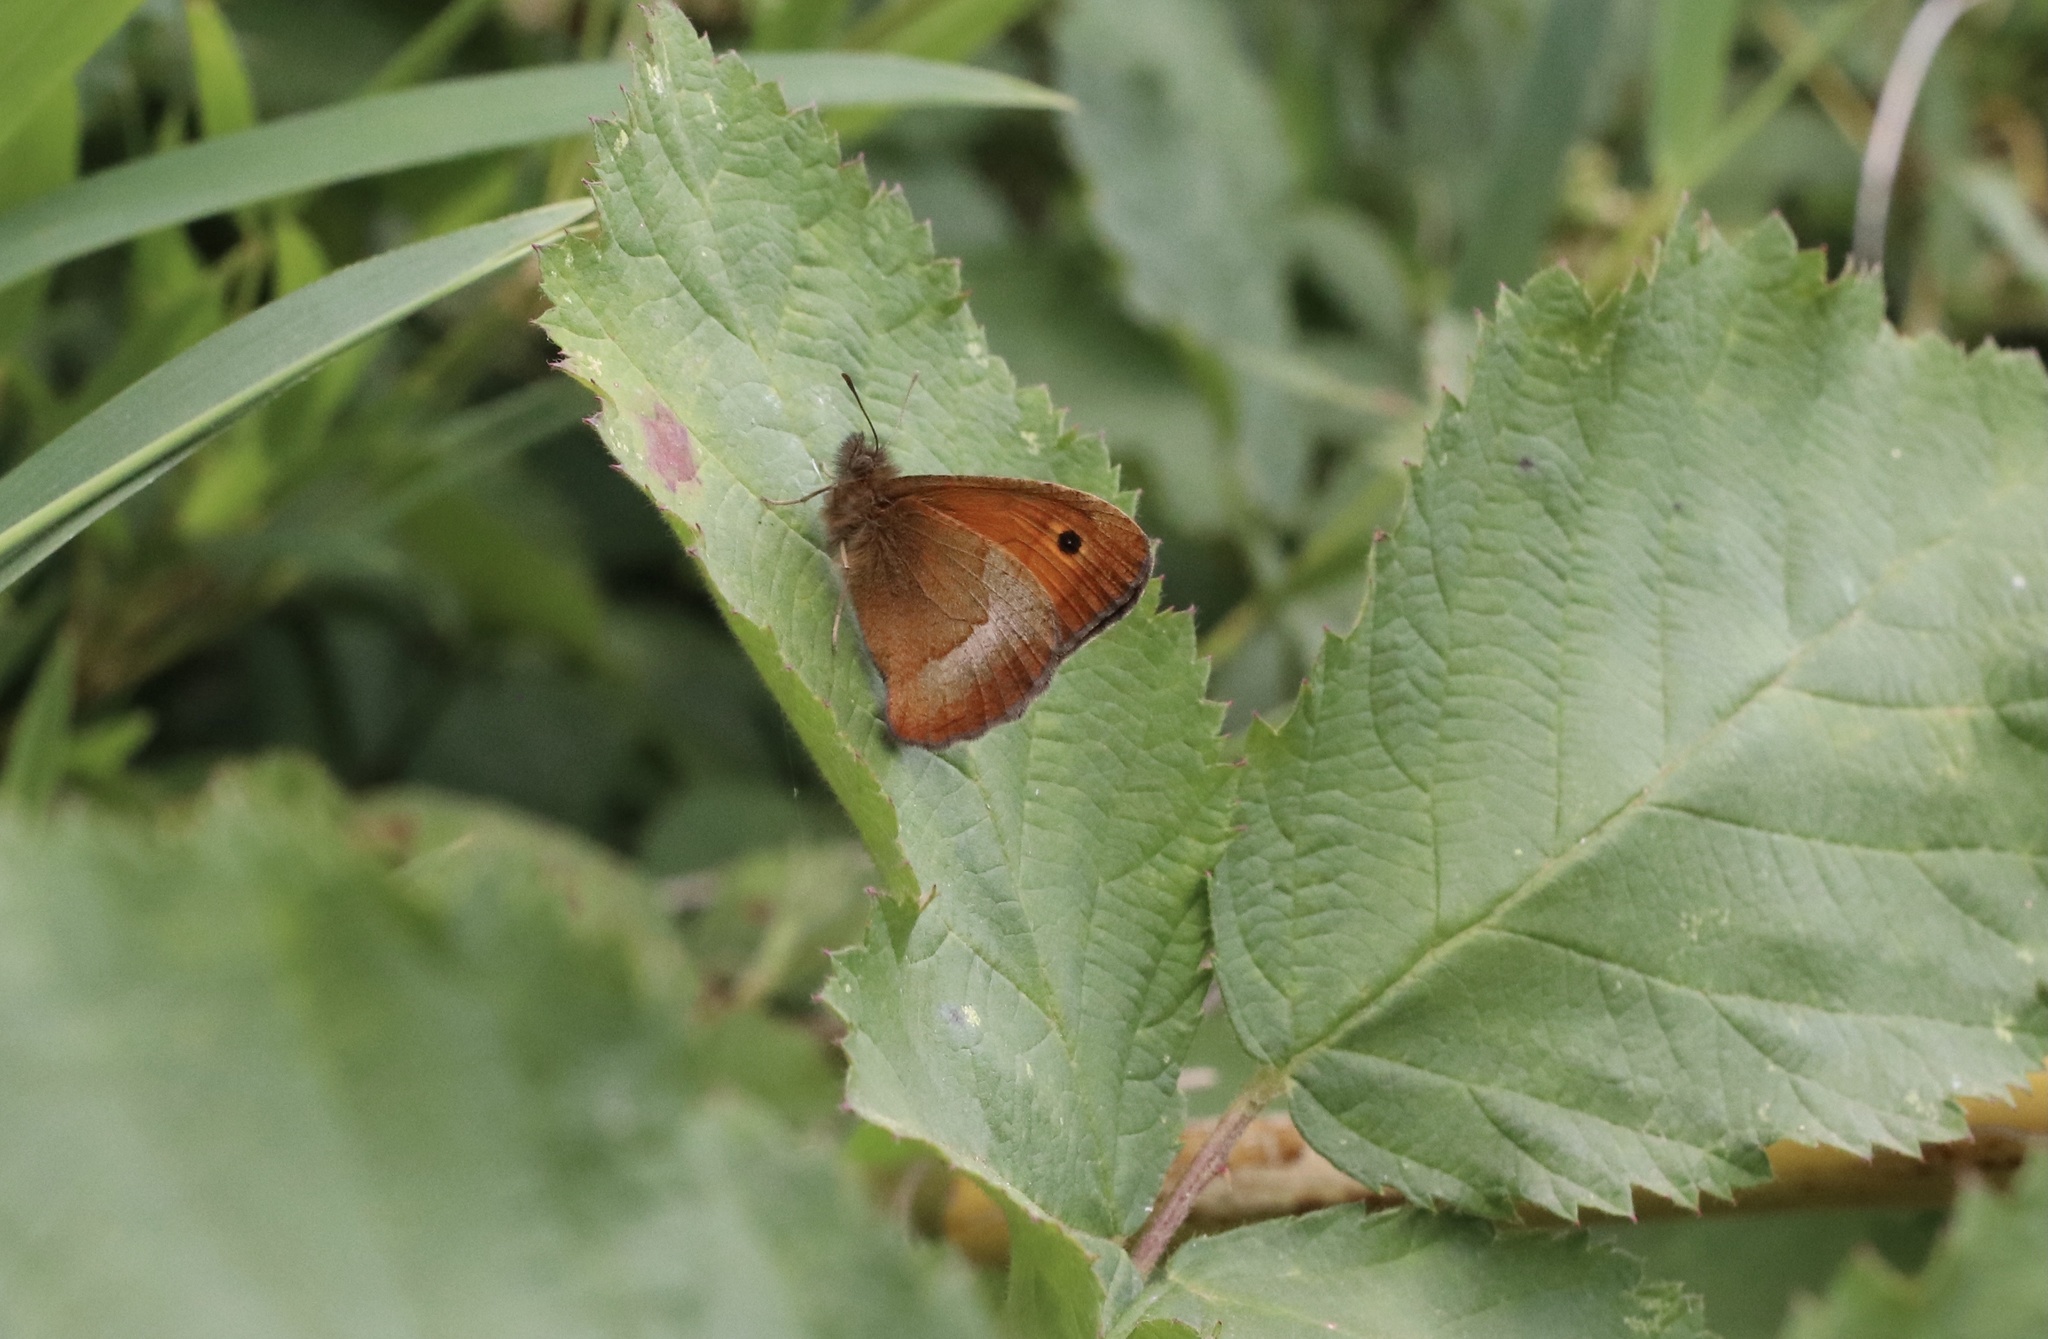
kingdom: Animalia
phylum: Arthropoda
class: Insecta
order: Lepidoptera
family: Nymphalidae
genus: Neomaenas
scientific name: Neomaenas poliozona
